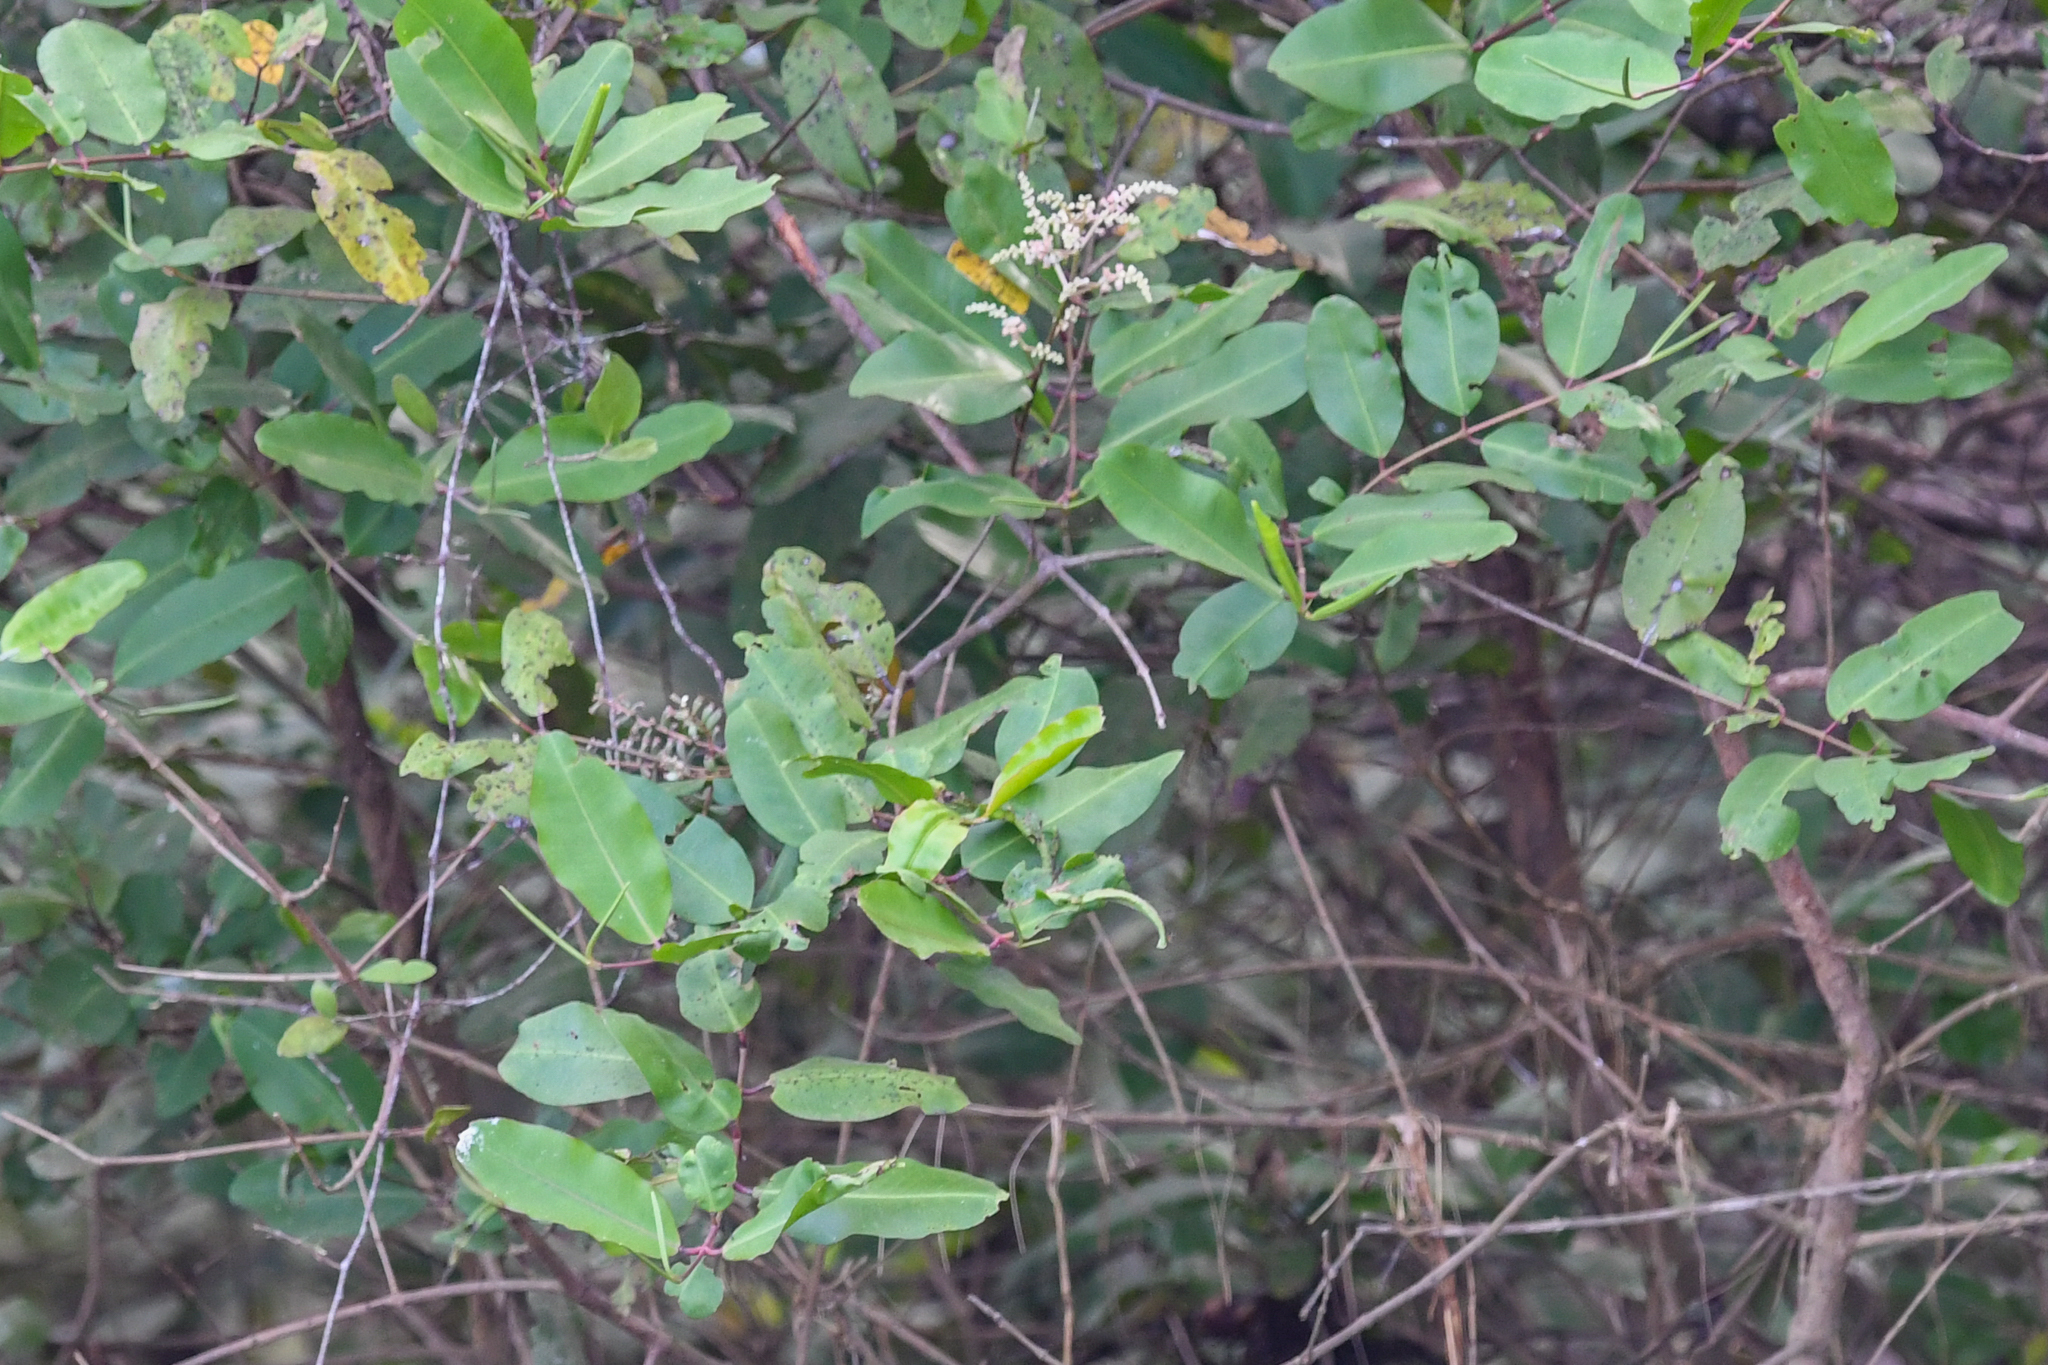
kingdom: Plantae
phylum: Tracheophyta
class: Magnoliopsida
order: Myrtales
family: Combretaceae
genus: Laguncularia
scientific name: Laguncularia racemosa
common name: White mangrove
